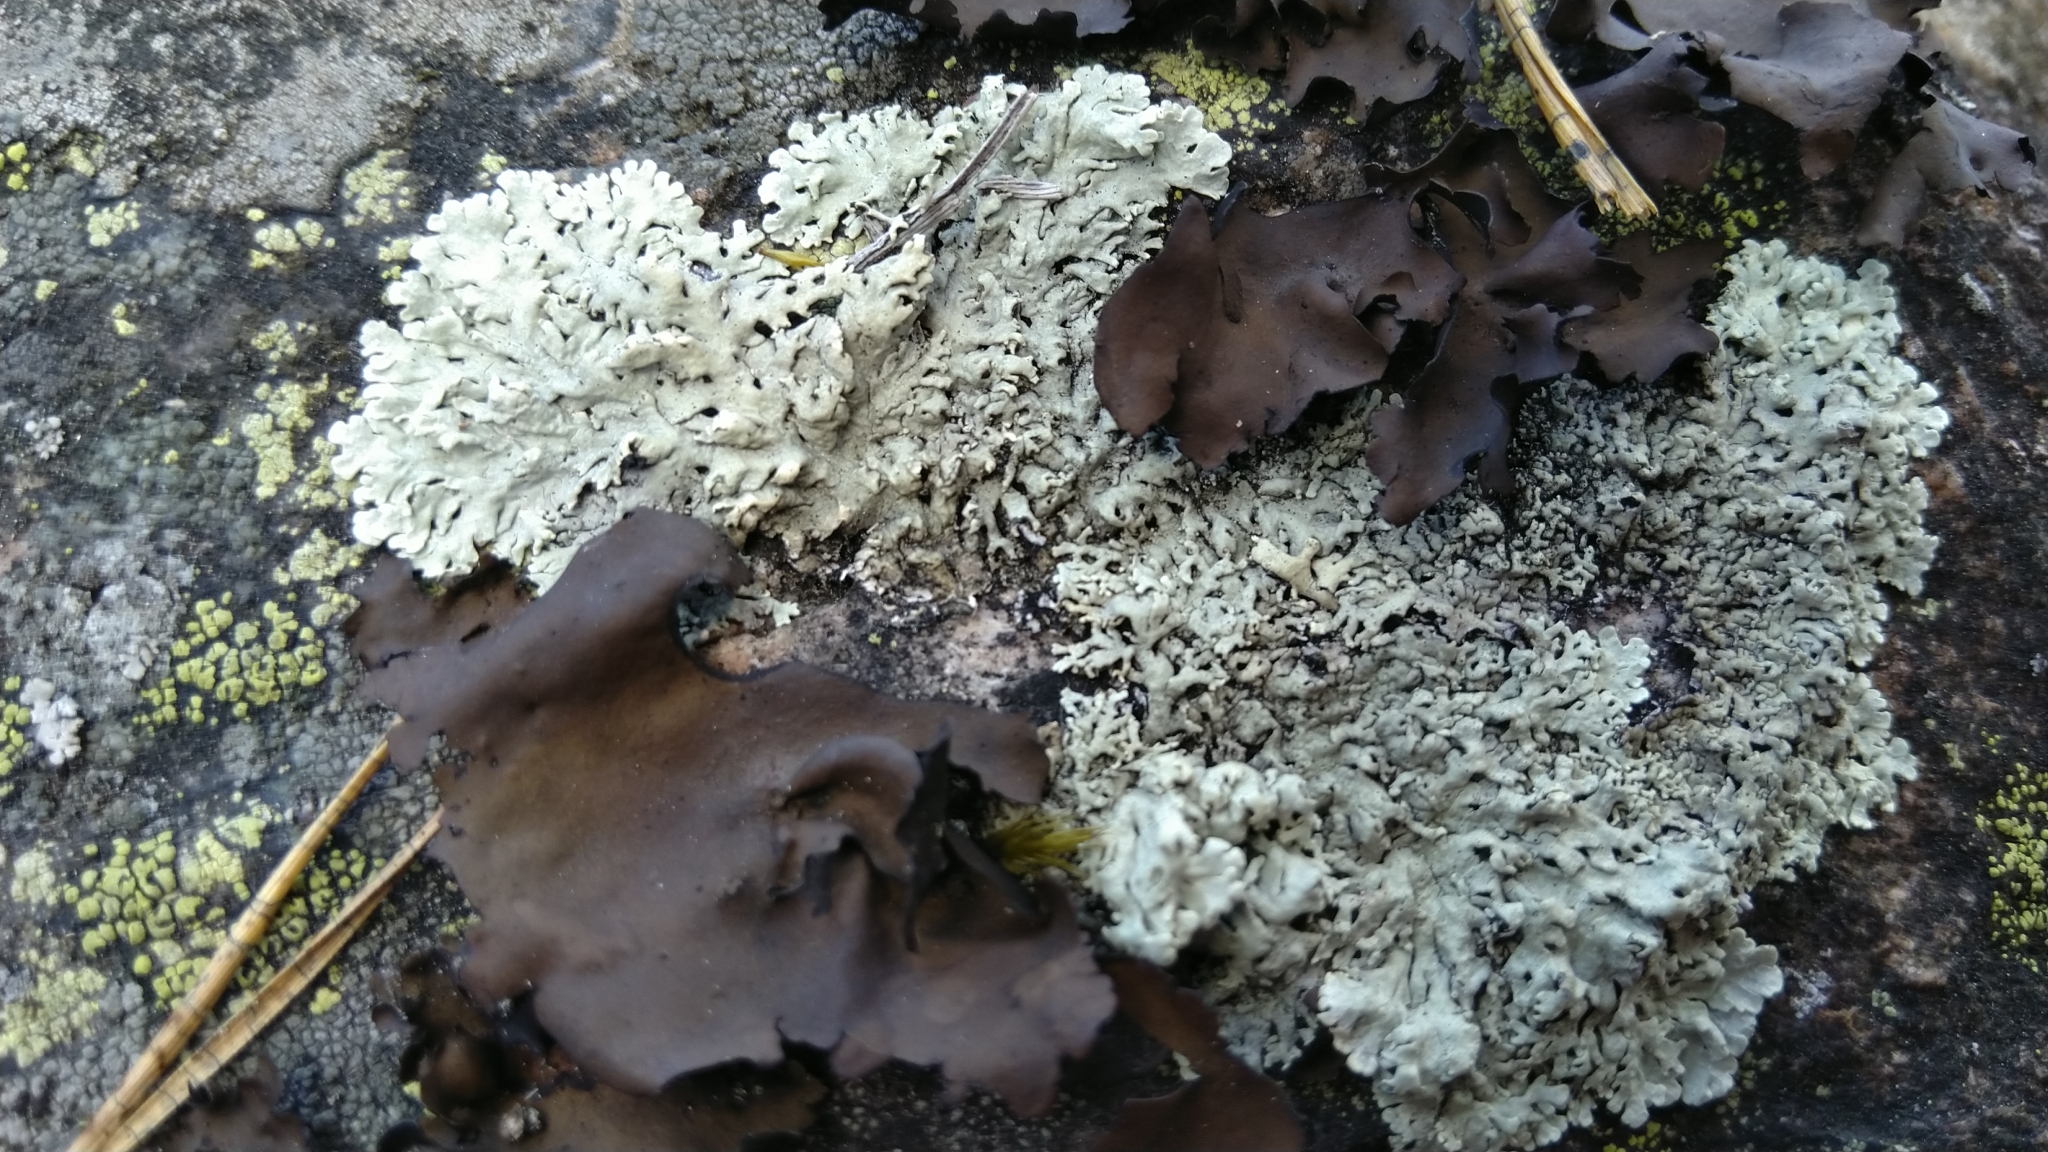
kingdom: Fungi
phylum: Ascomycota
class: Lecanoromycetes
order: Lecanorales
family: Parmeliaceae
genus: Arctoparmelia
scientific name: Arctoparmelia centrifuga
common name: Concentric ring lichen
